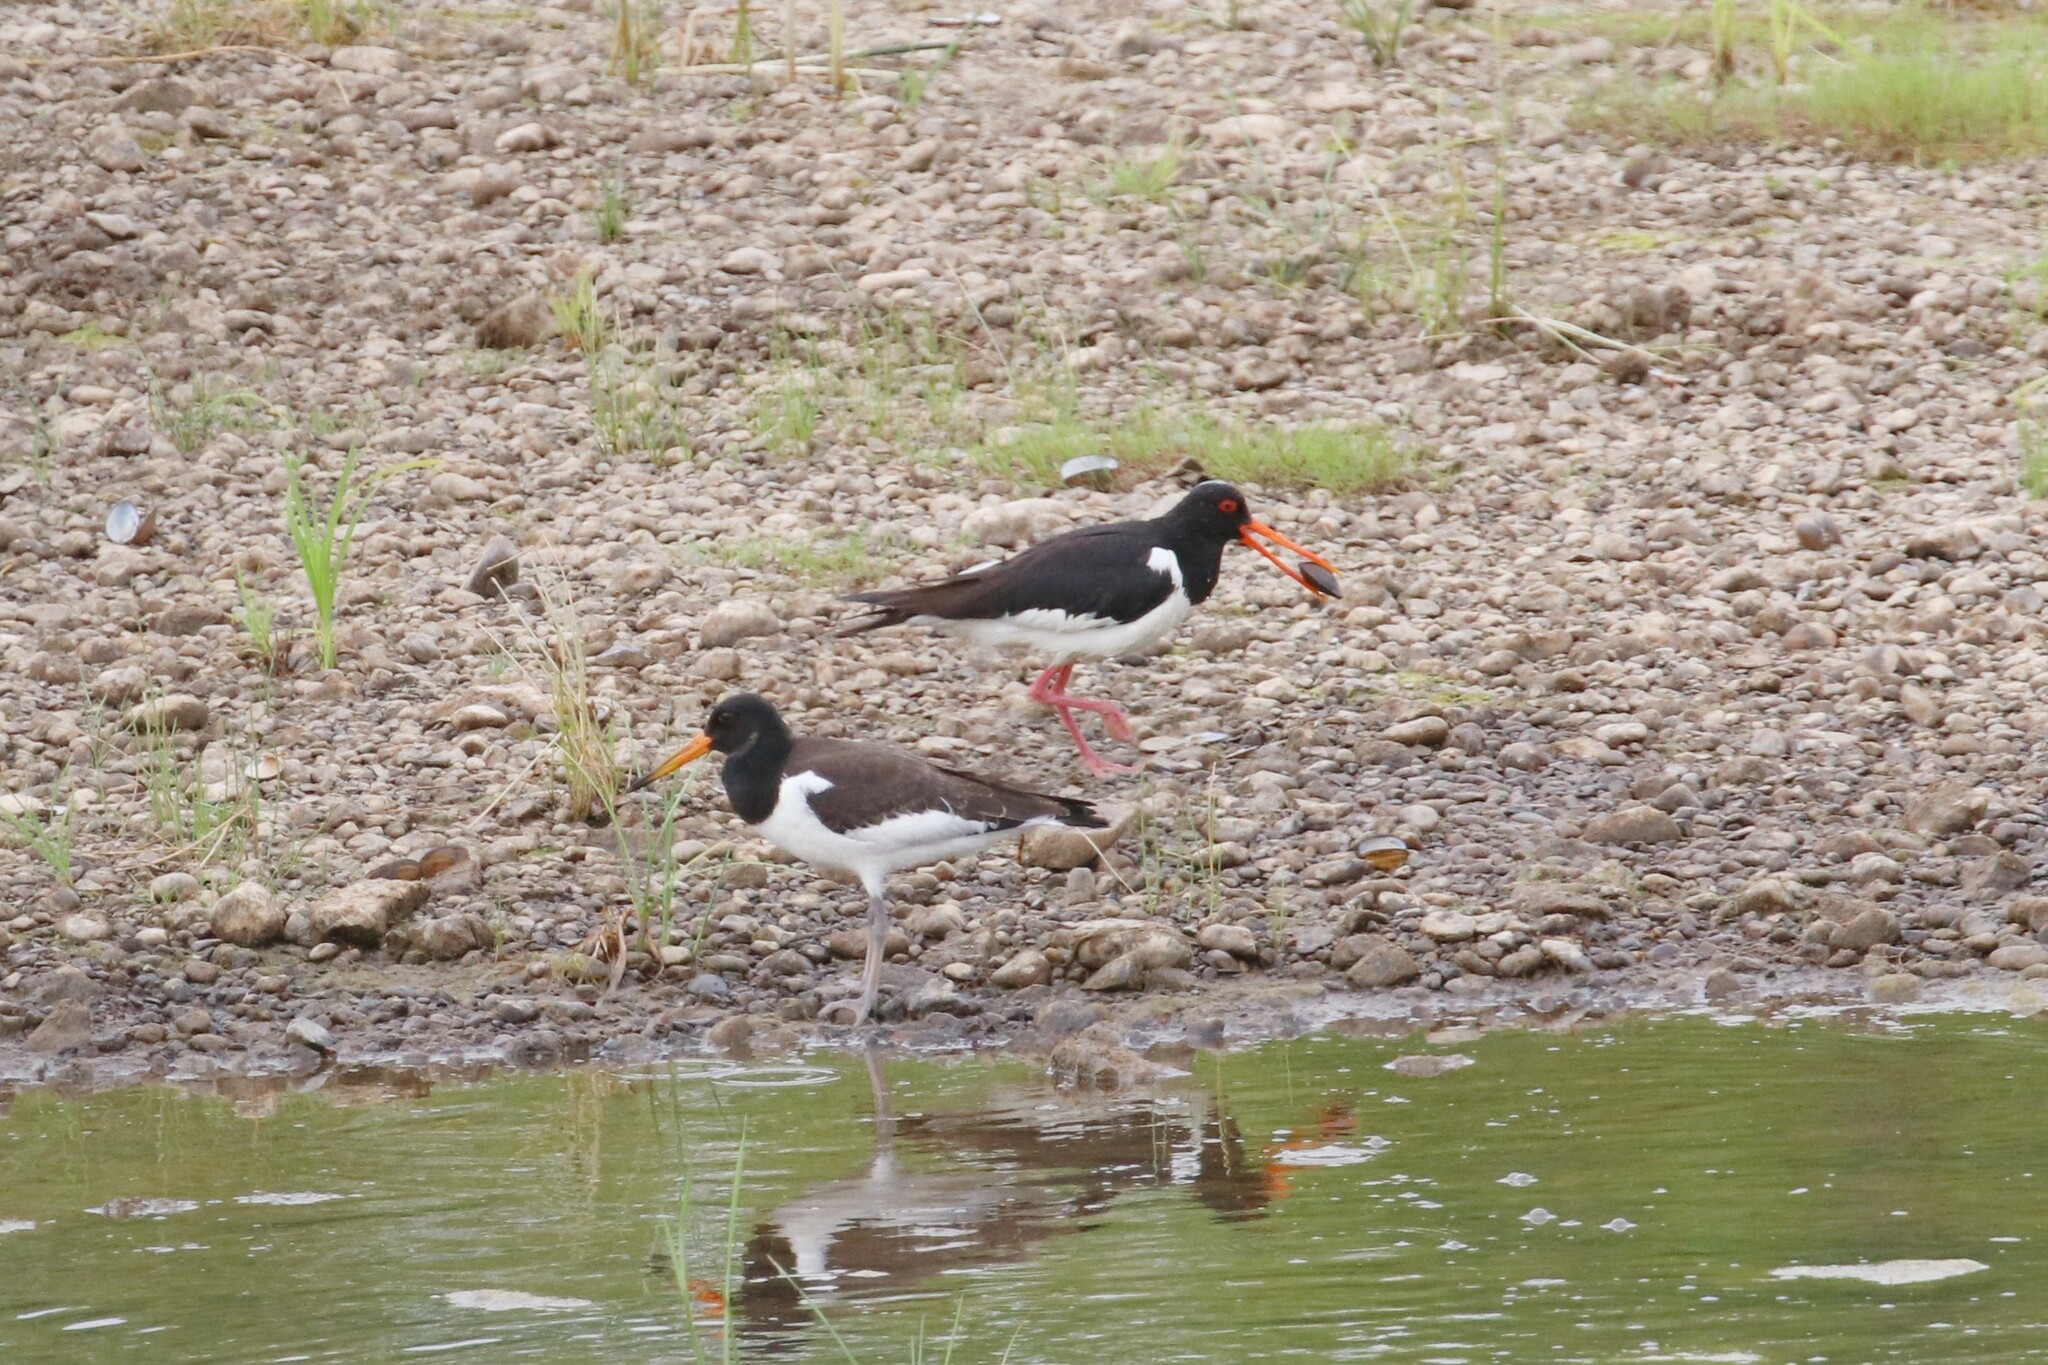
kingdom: Animalia
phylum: Chordata
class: Aves
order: Charadriiformes
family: Haematopodidae
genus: Haematopus
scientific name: Haematopus ostralegus
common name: Eurasian oystercatcher
